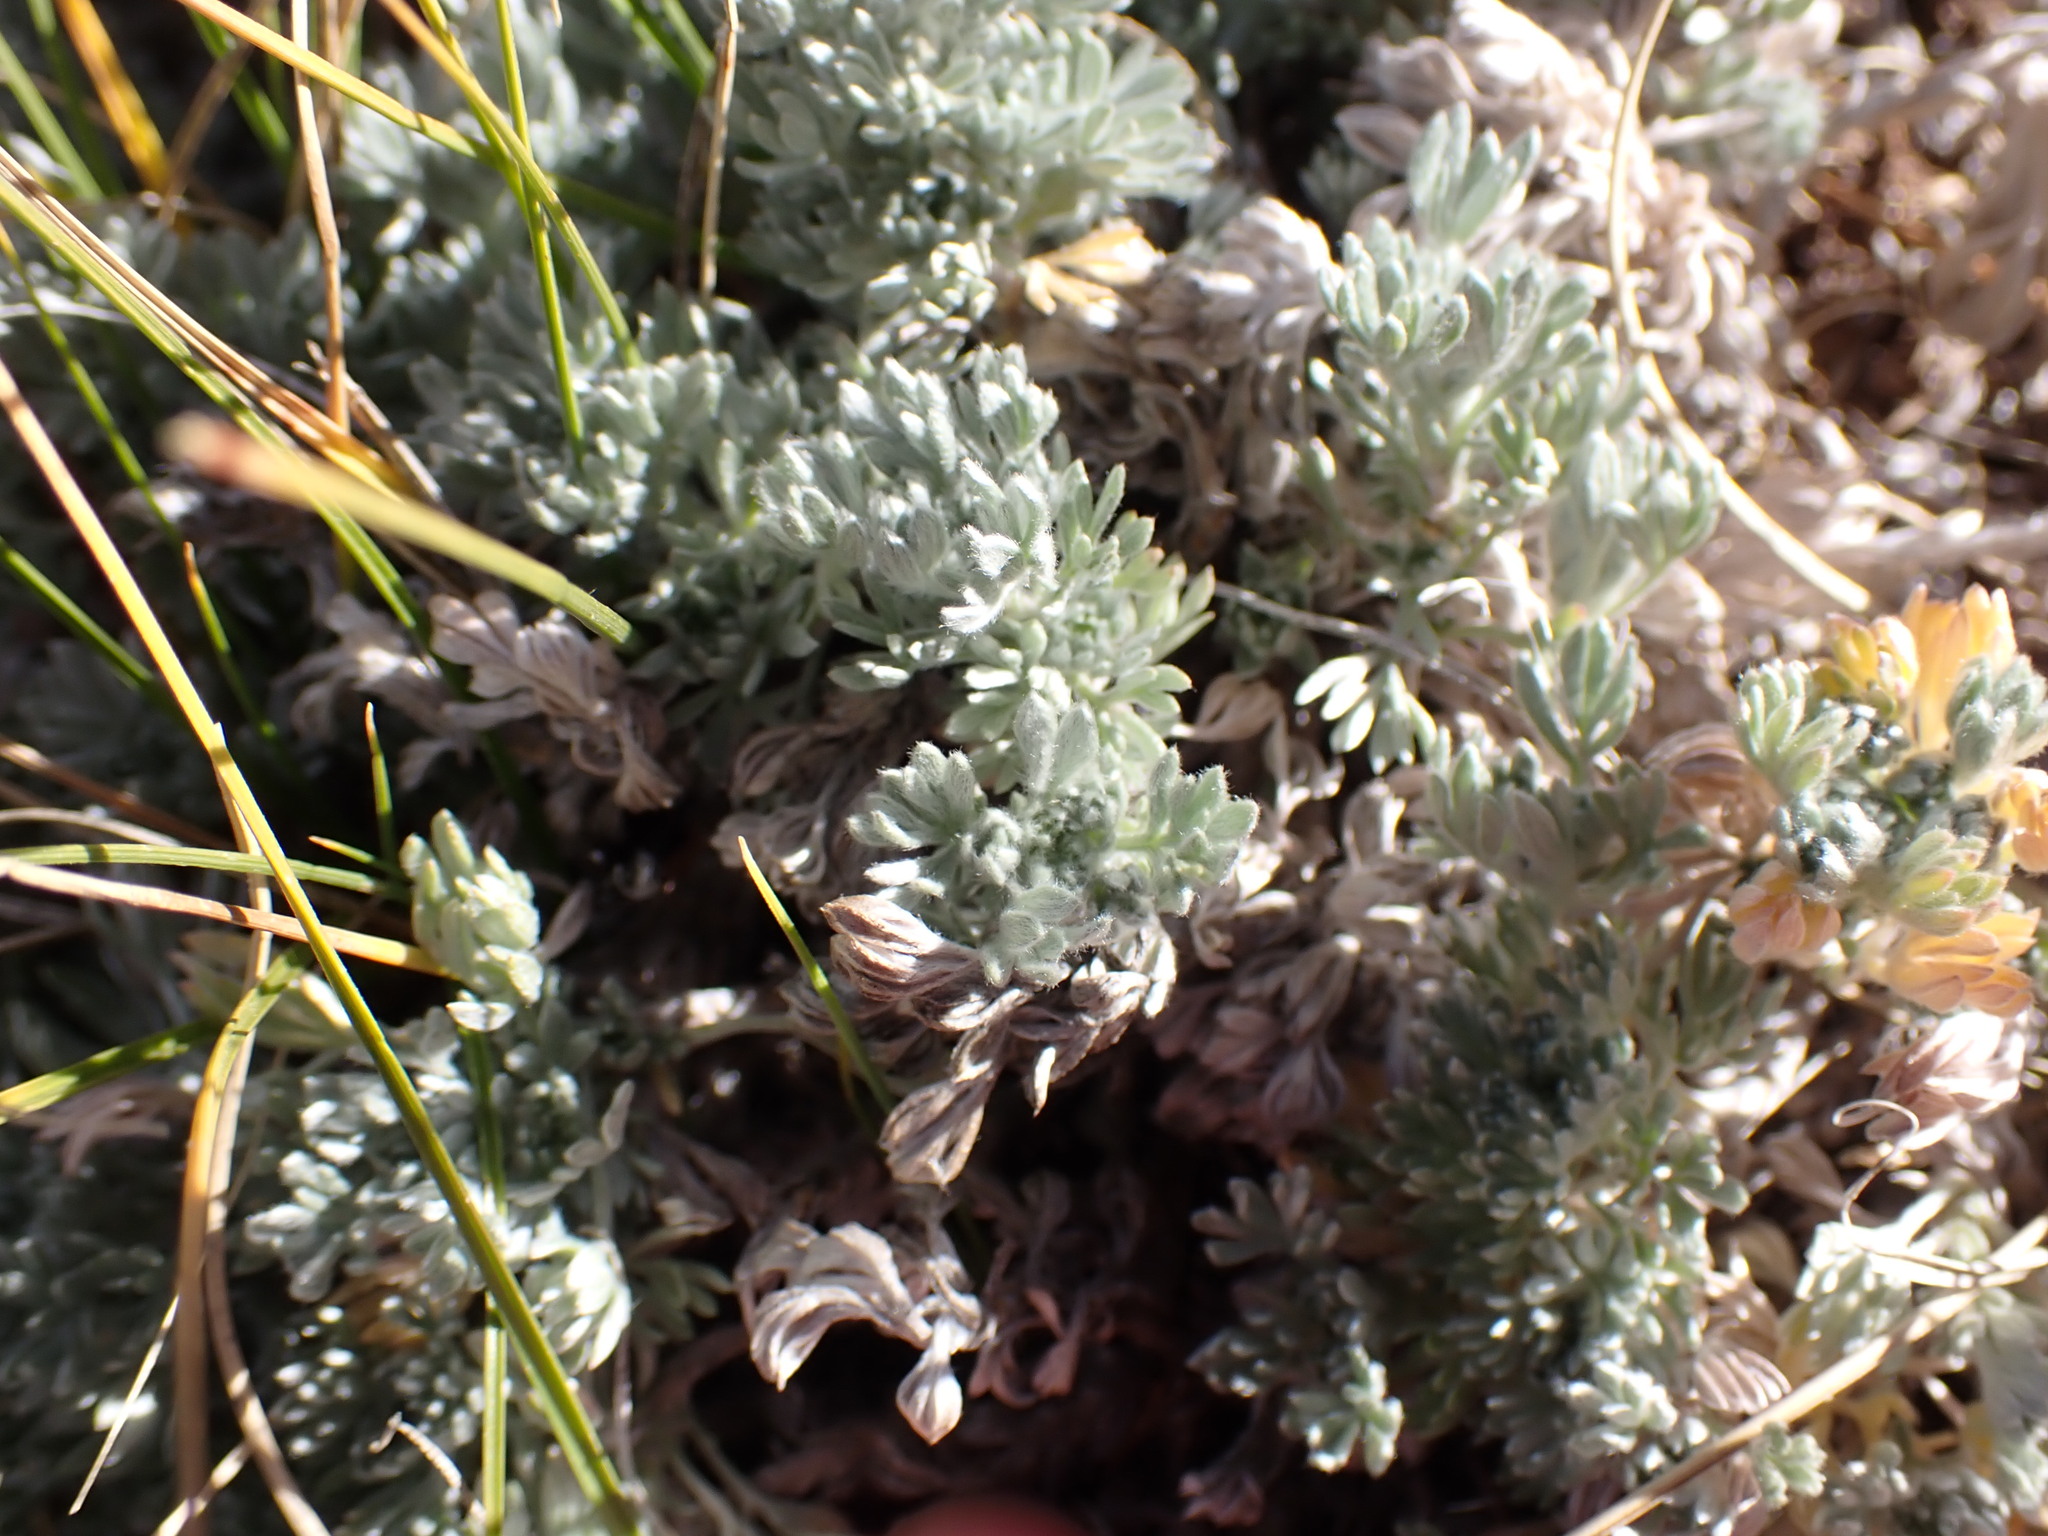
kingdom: Plantae
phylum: Tracheophyta
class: Magnoliopsida
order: Asterales
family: Asteraceae
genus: Artemisia
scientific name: Artemisia frigida
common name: Prairie sagewort
